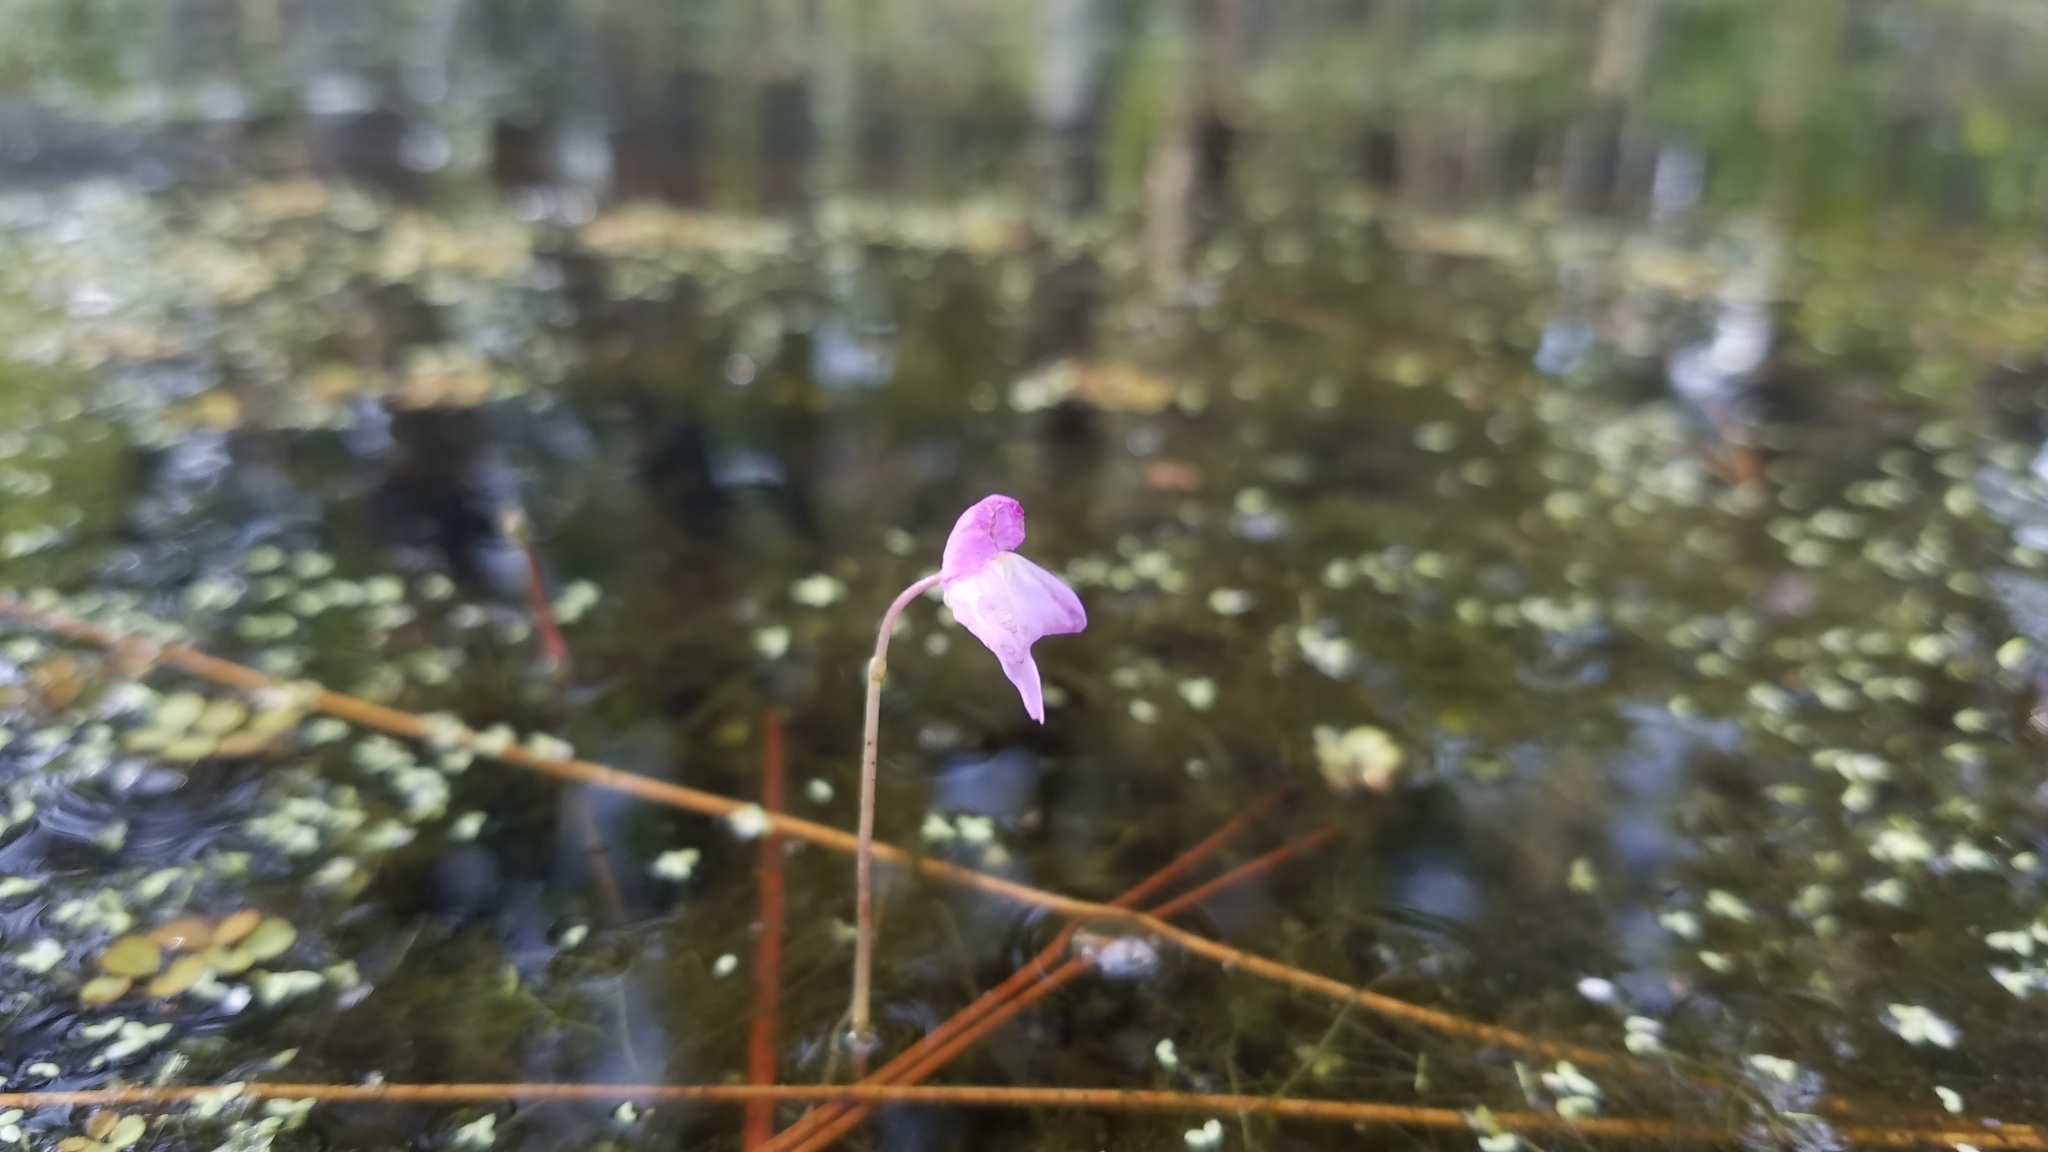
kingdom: Plantae
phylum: Tracheophyta
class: Magnoliopsida
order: Lamiales
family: Lentibulariaceae
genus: Utricularia
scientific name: Utricularia purpurea
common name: Eastern purple bladderwort
